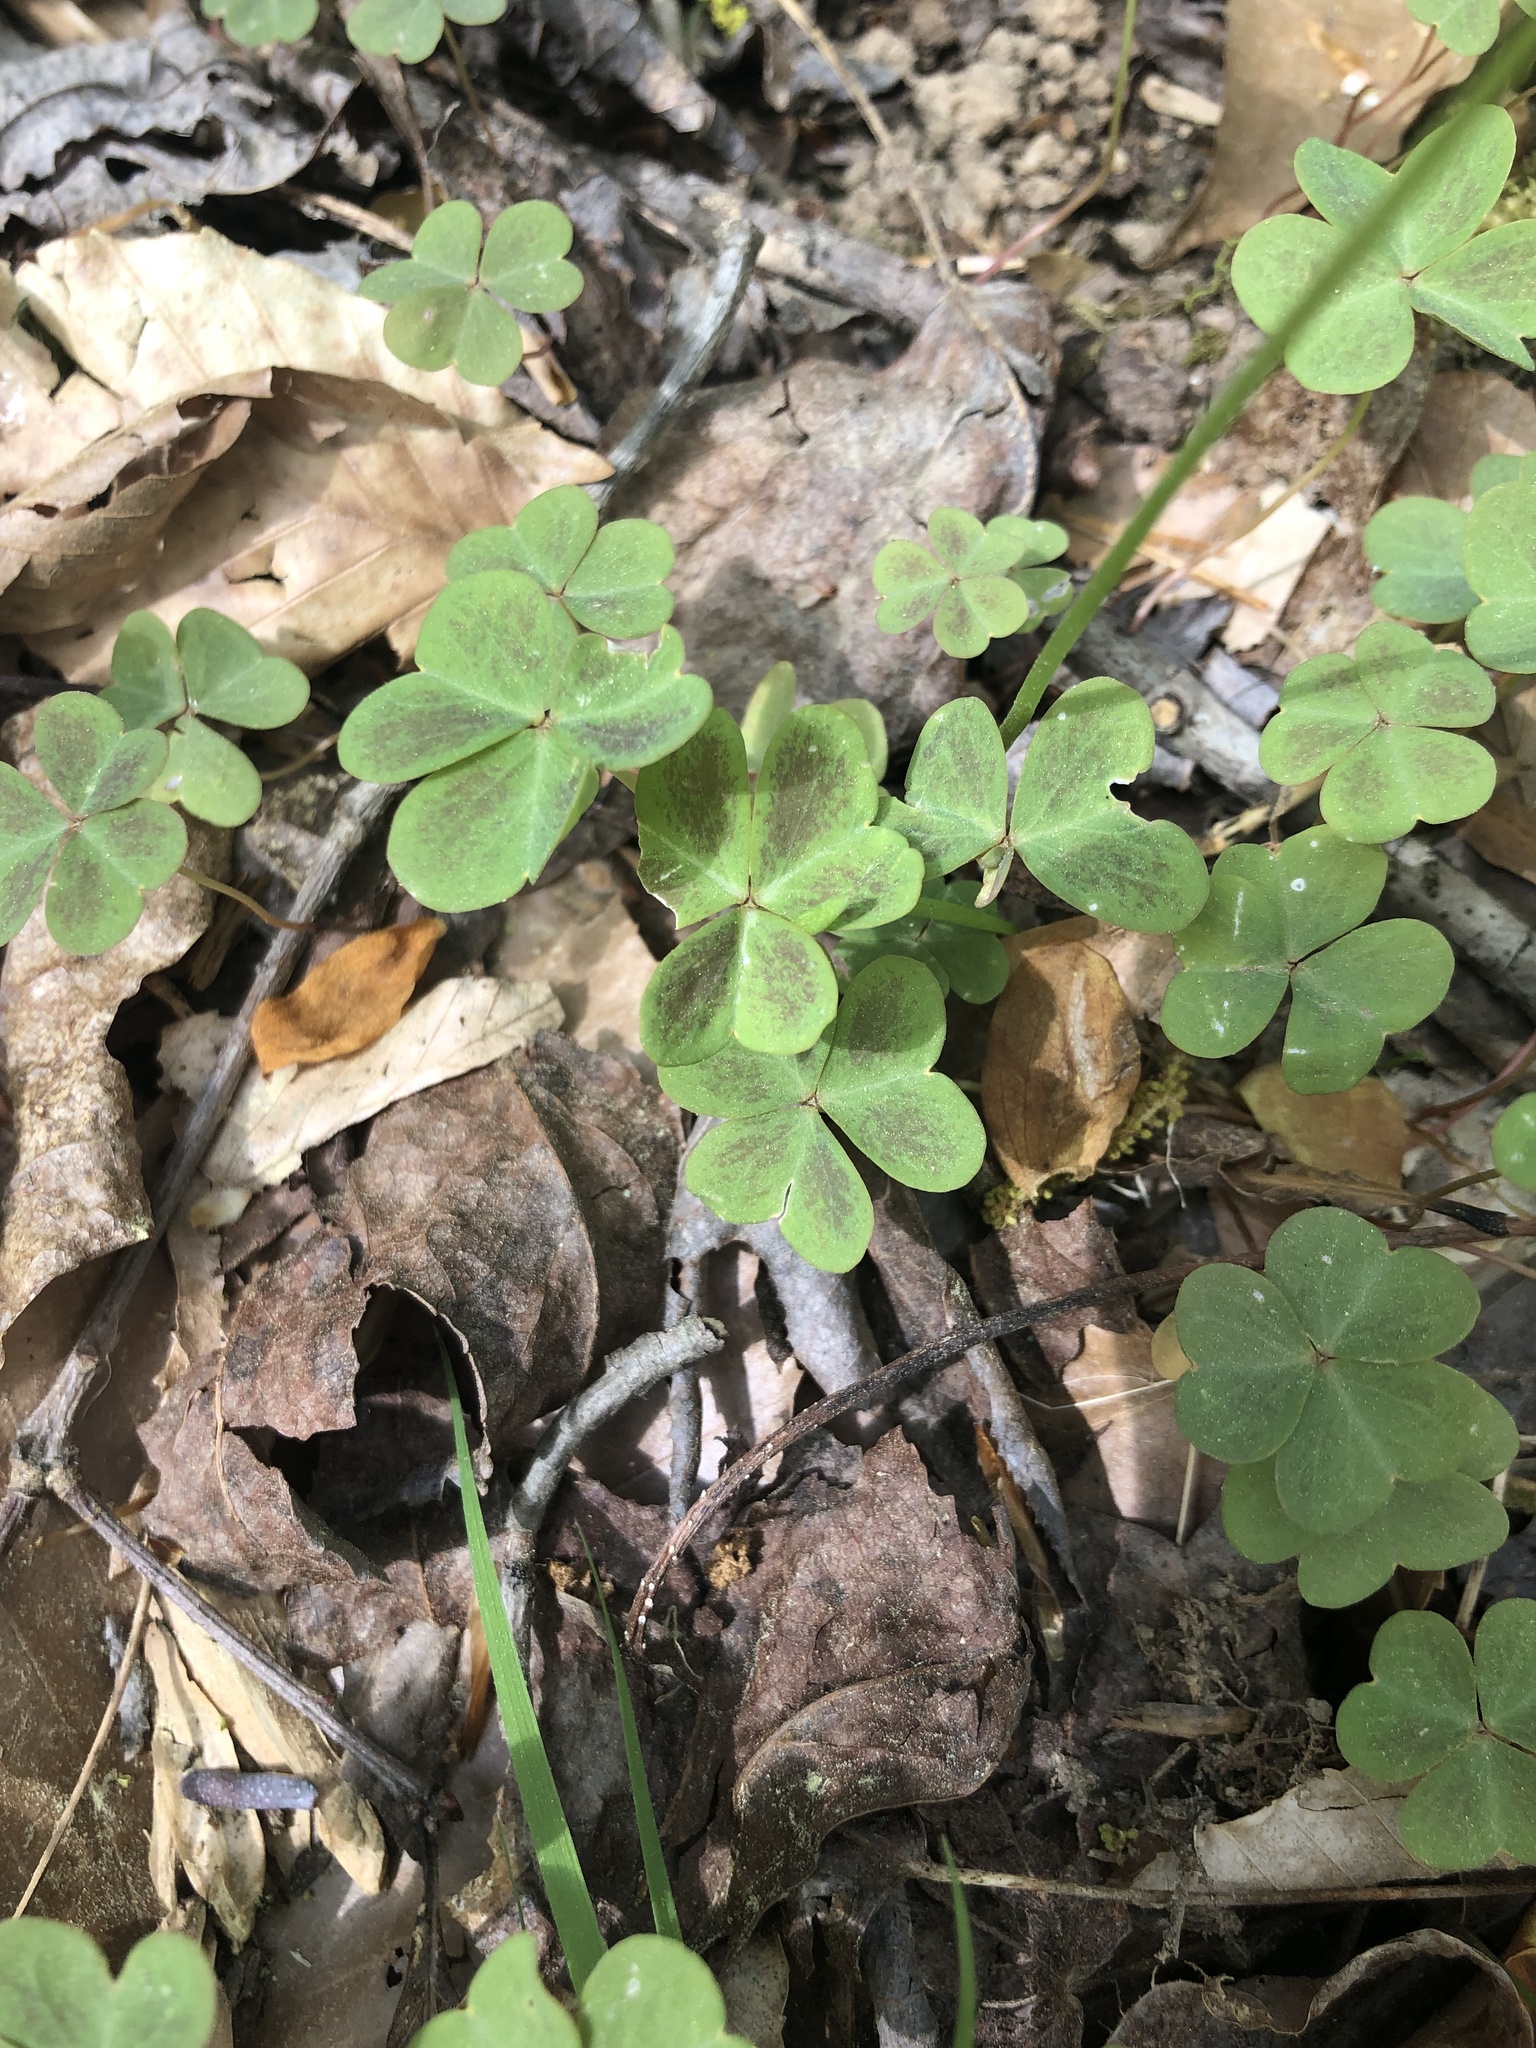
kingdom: Plantae
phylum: Tracheophyta
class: Magnoliopsida
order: Oxalidales
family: Oxalidaceae
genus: Oxalis
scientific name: Oxalis violacea
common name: Violet wood-sorrel
